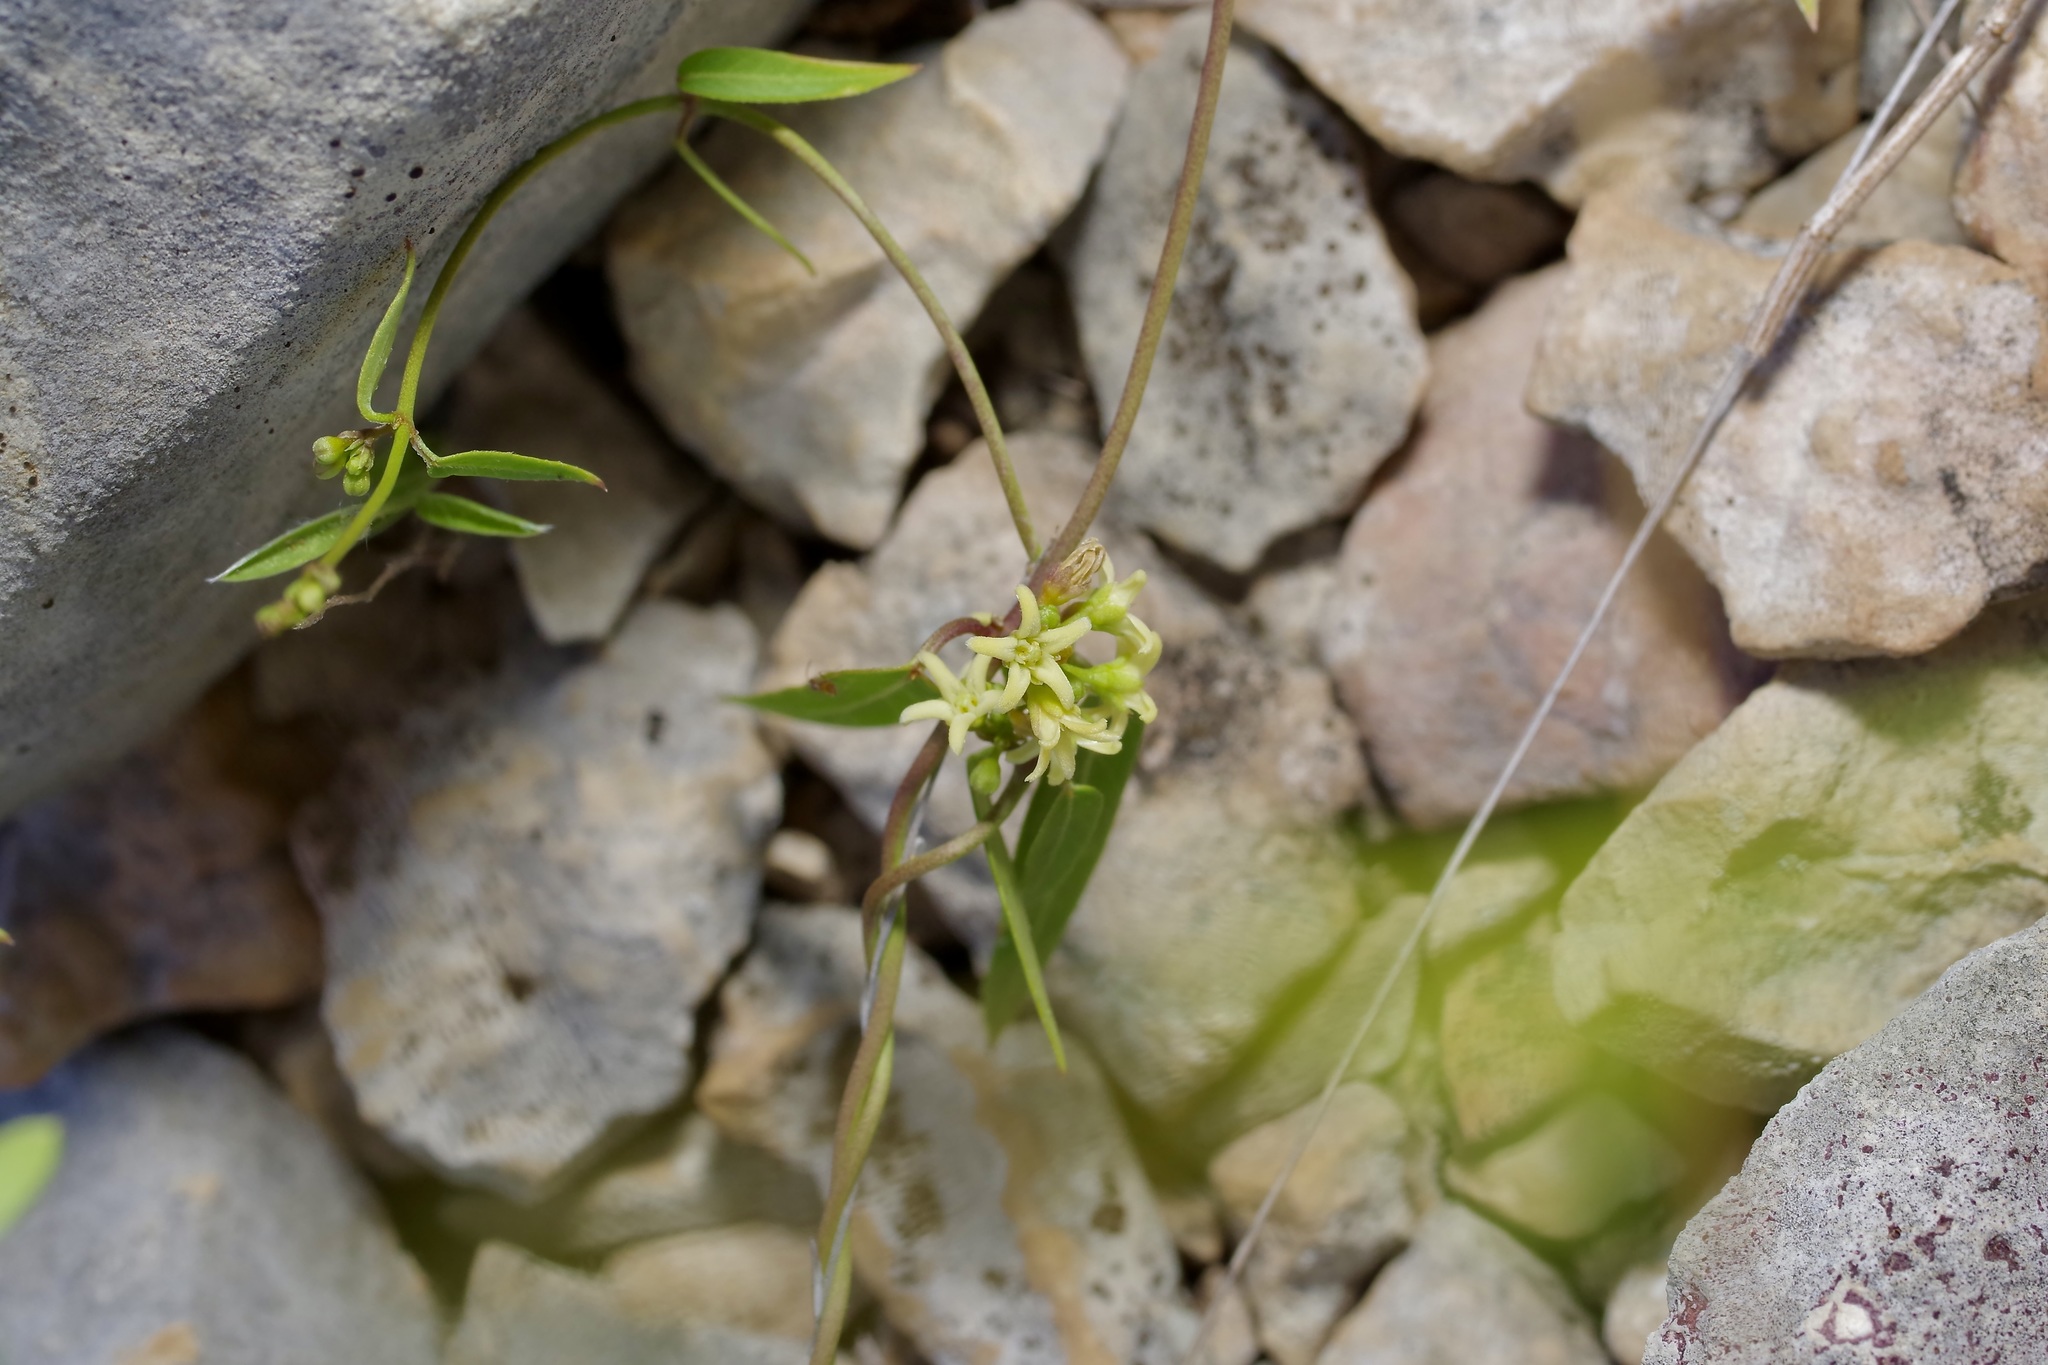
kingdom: Plantae
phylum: Tracheophyta
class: Magnoliopsida
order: Gentianales
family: Apocynaceae
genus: Metastelma
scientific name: Metastelma palmeri
